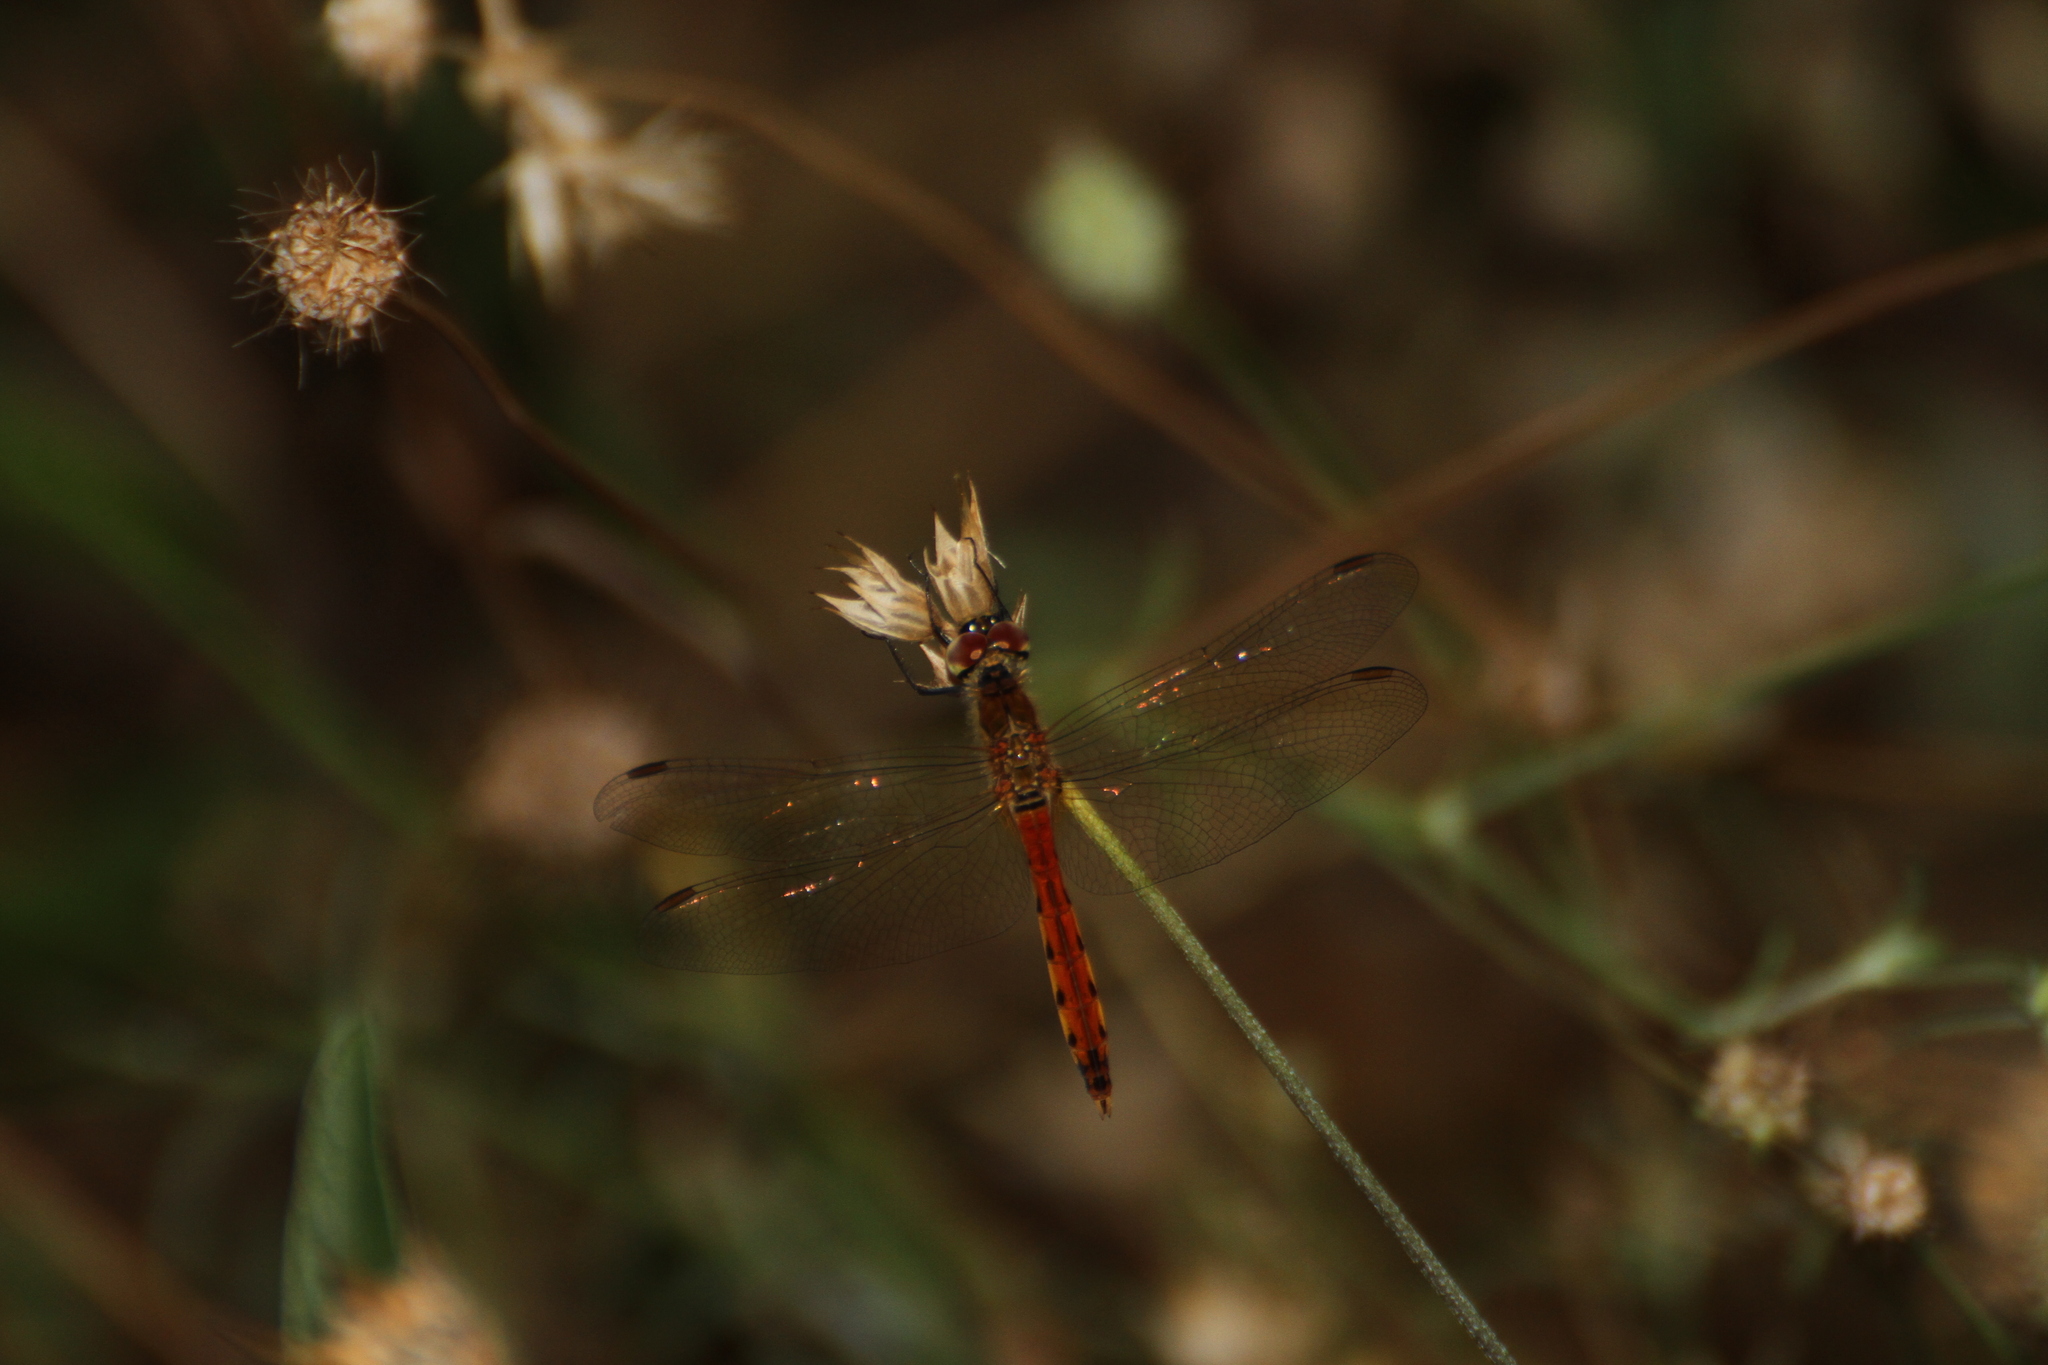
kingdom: Animalia
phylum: Arthropoda
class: Insecta
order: Odonata
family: Libellulidae
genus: Sympetrum
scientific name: Sympetrum depressiusculum
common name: Spotted darter
